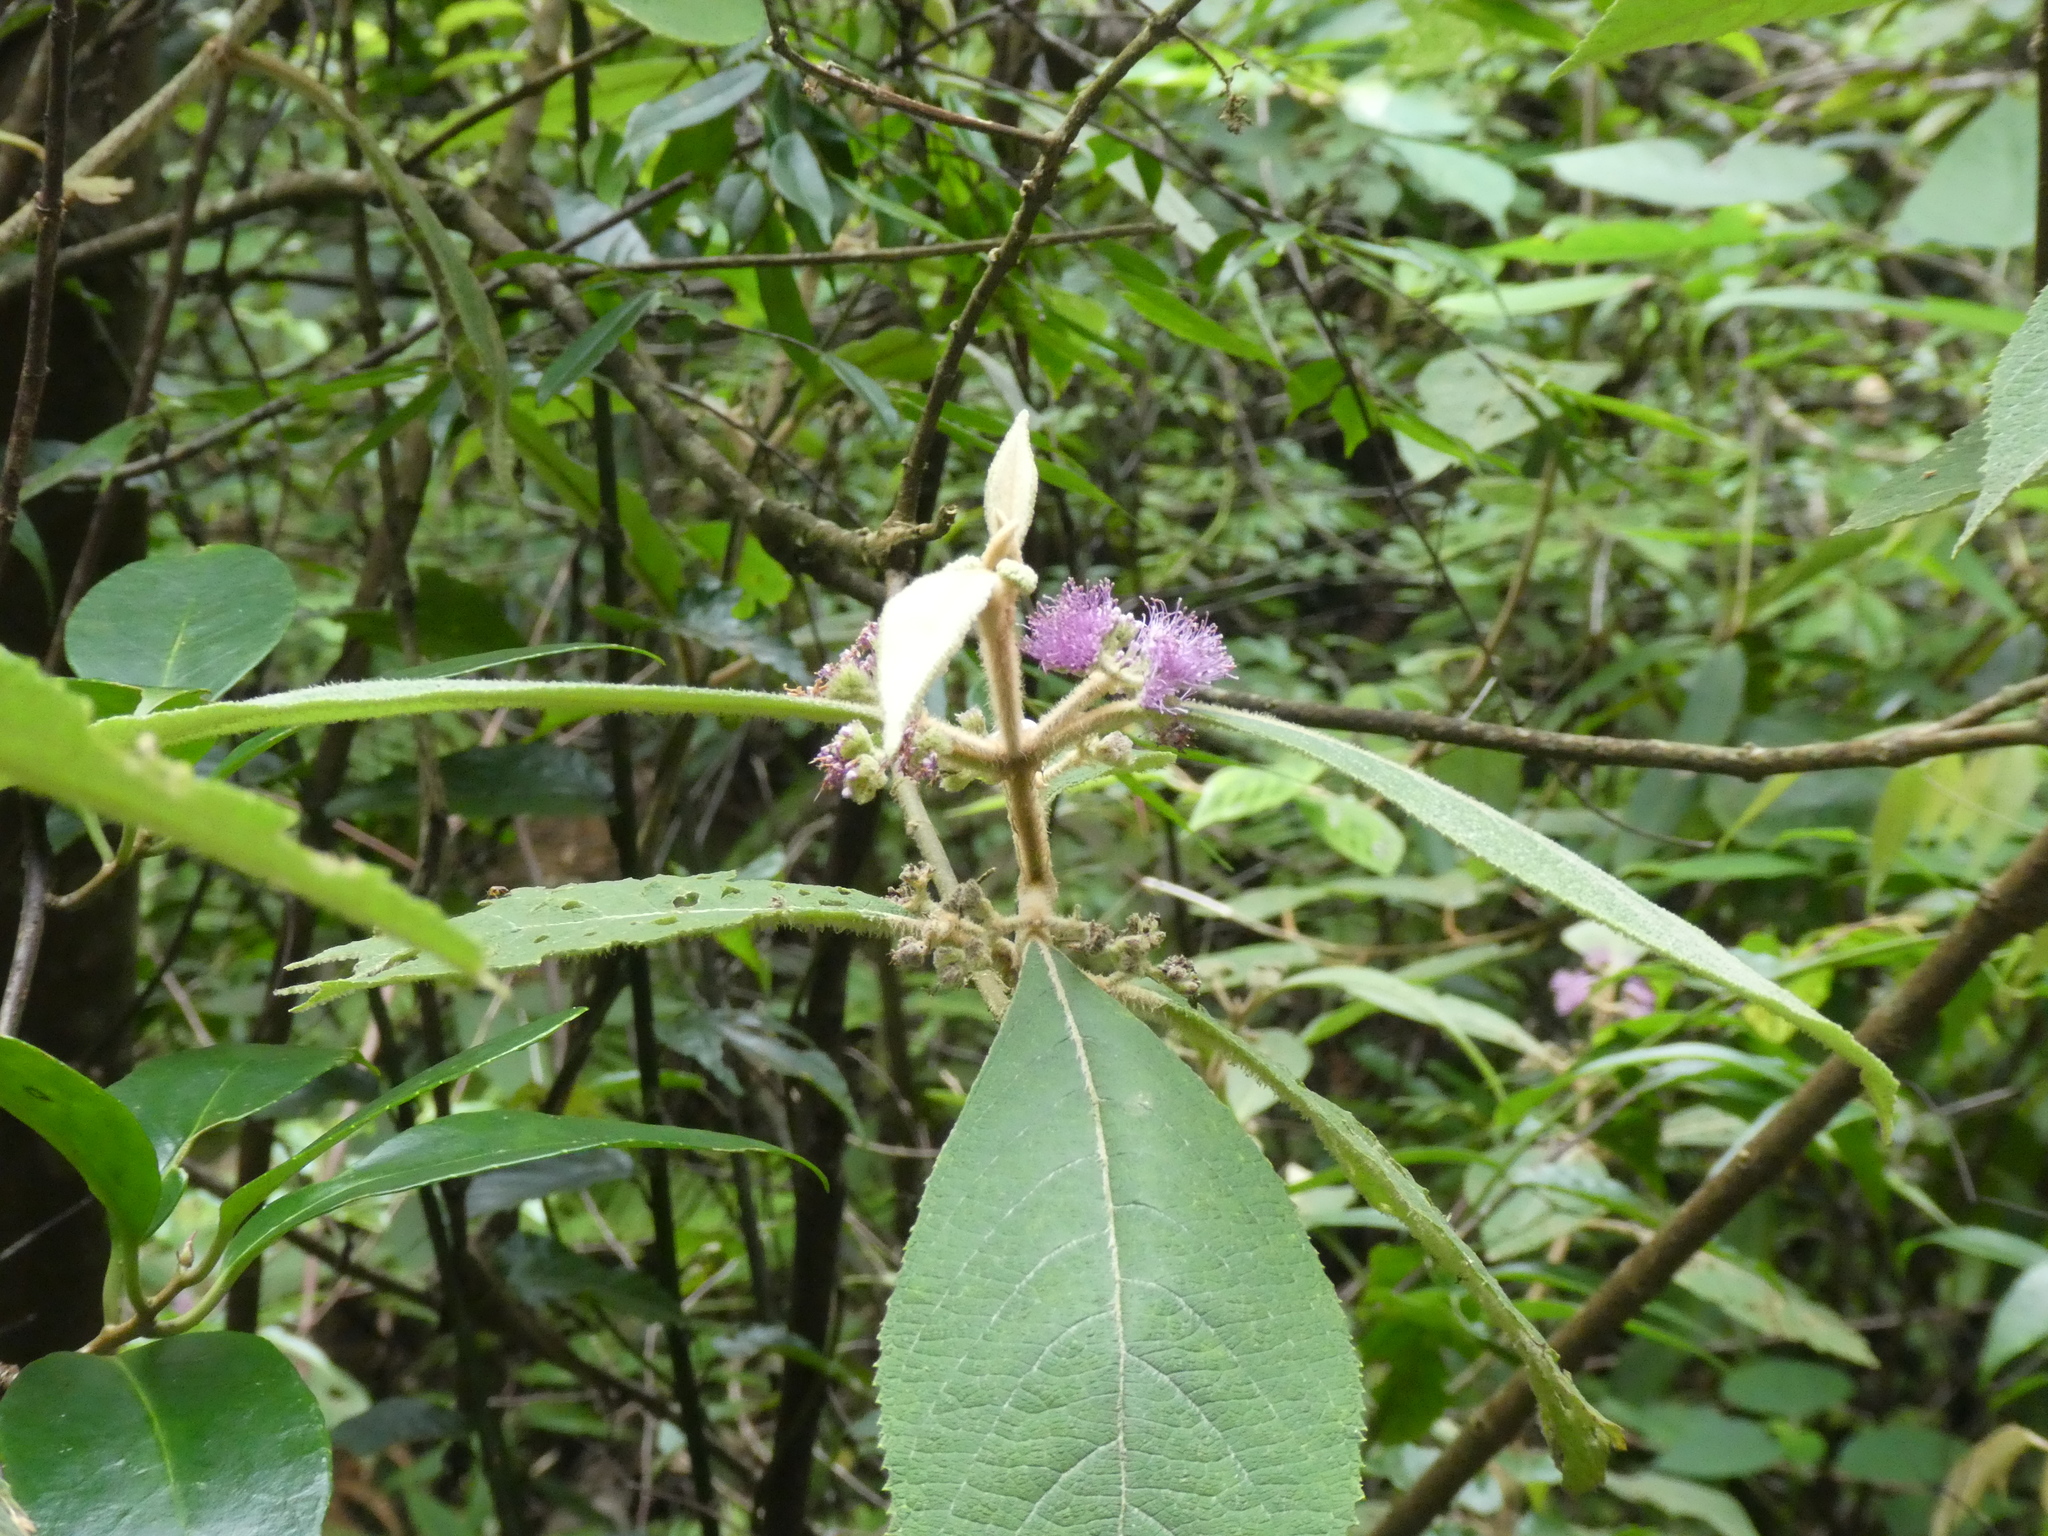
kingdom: Plantae
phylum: Tracheophyta
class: Magnoliopsida
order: Lamiales
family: Lamiaceae
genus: Callicarpa
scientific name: Callicarpa kochiana
